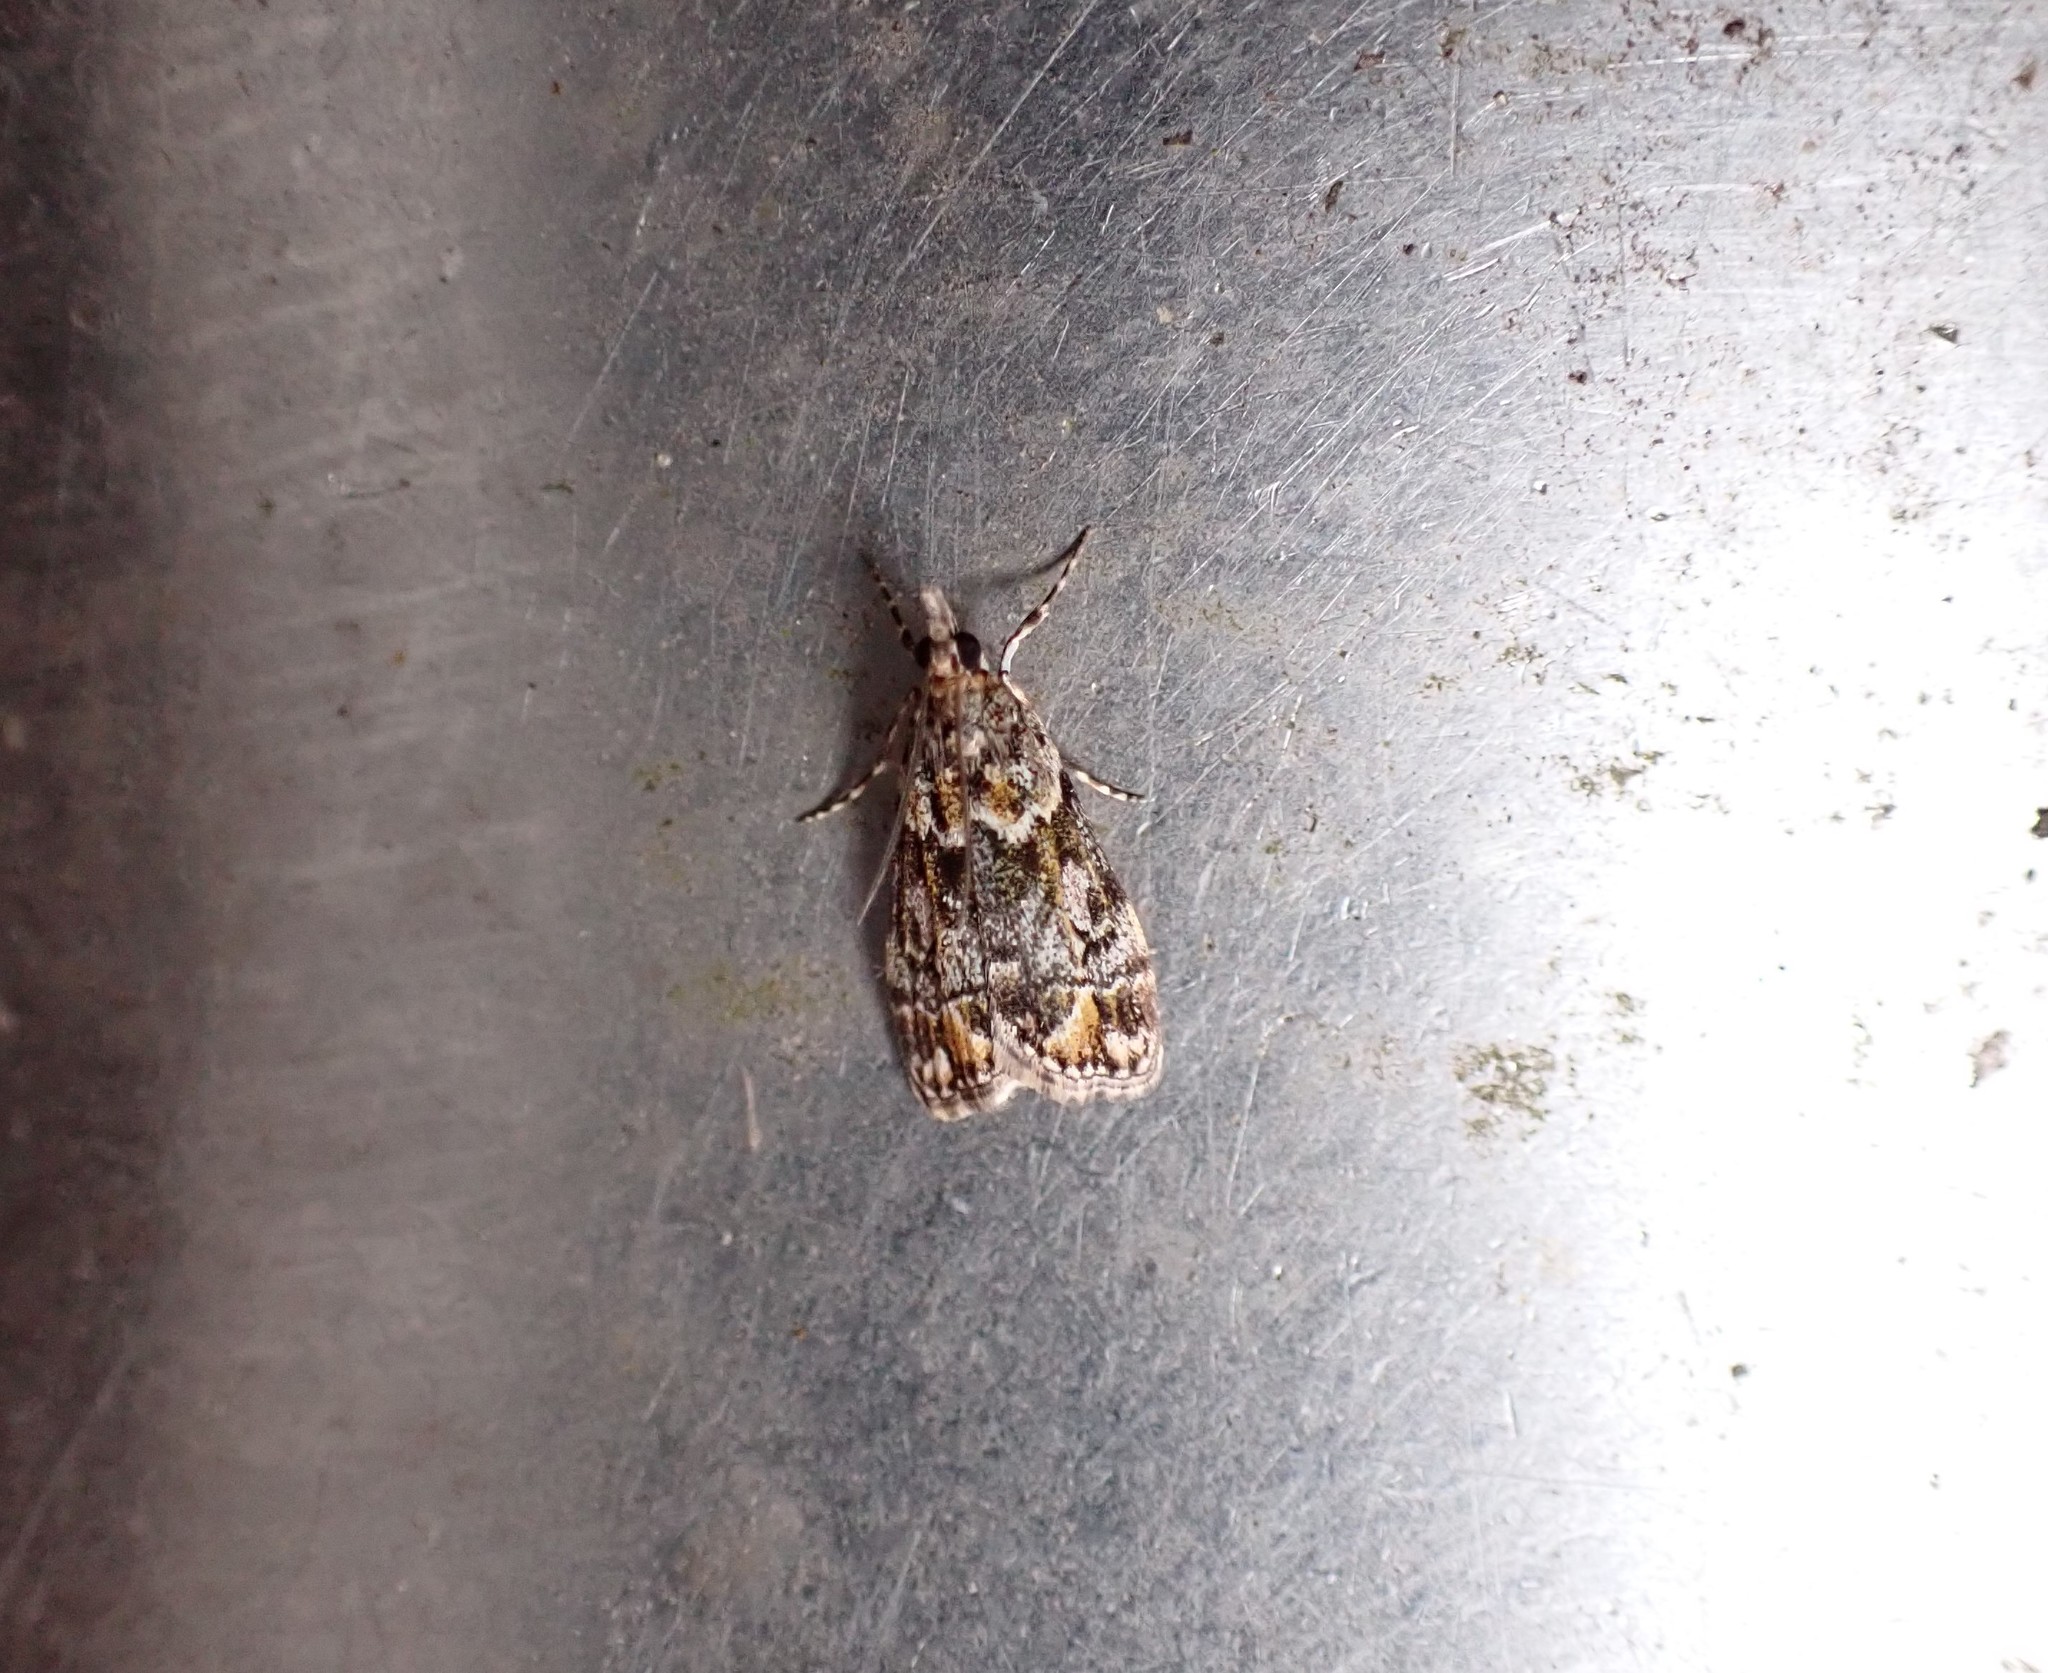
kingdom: Animalia
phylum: Arthropoda
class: Insecta
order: Lepidoptera
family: Crambidae
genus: Eudonia
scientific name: Eudonia minualis
